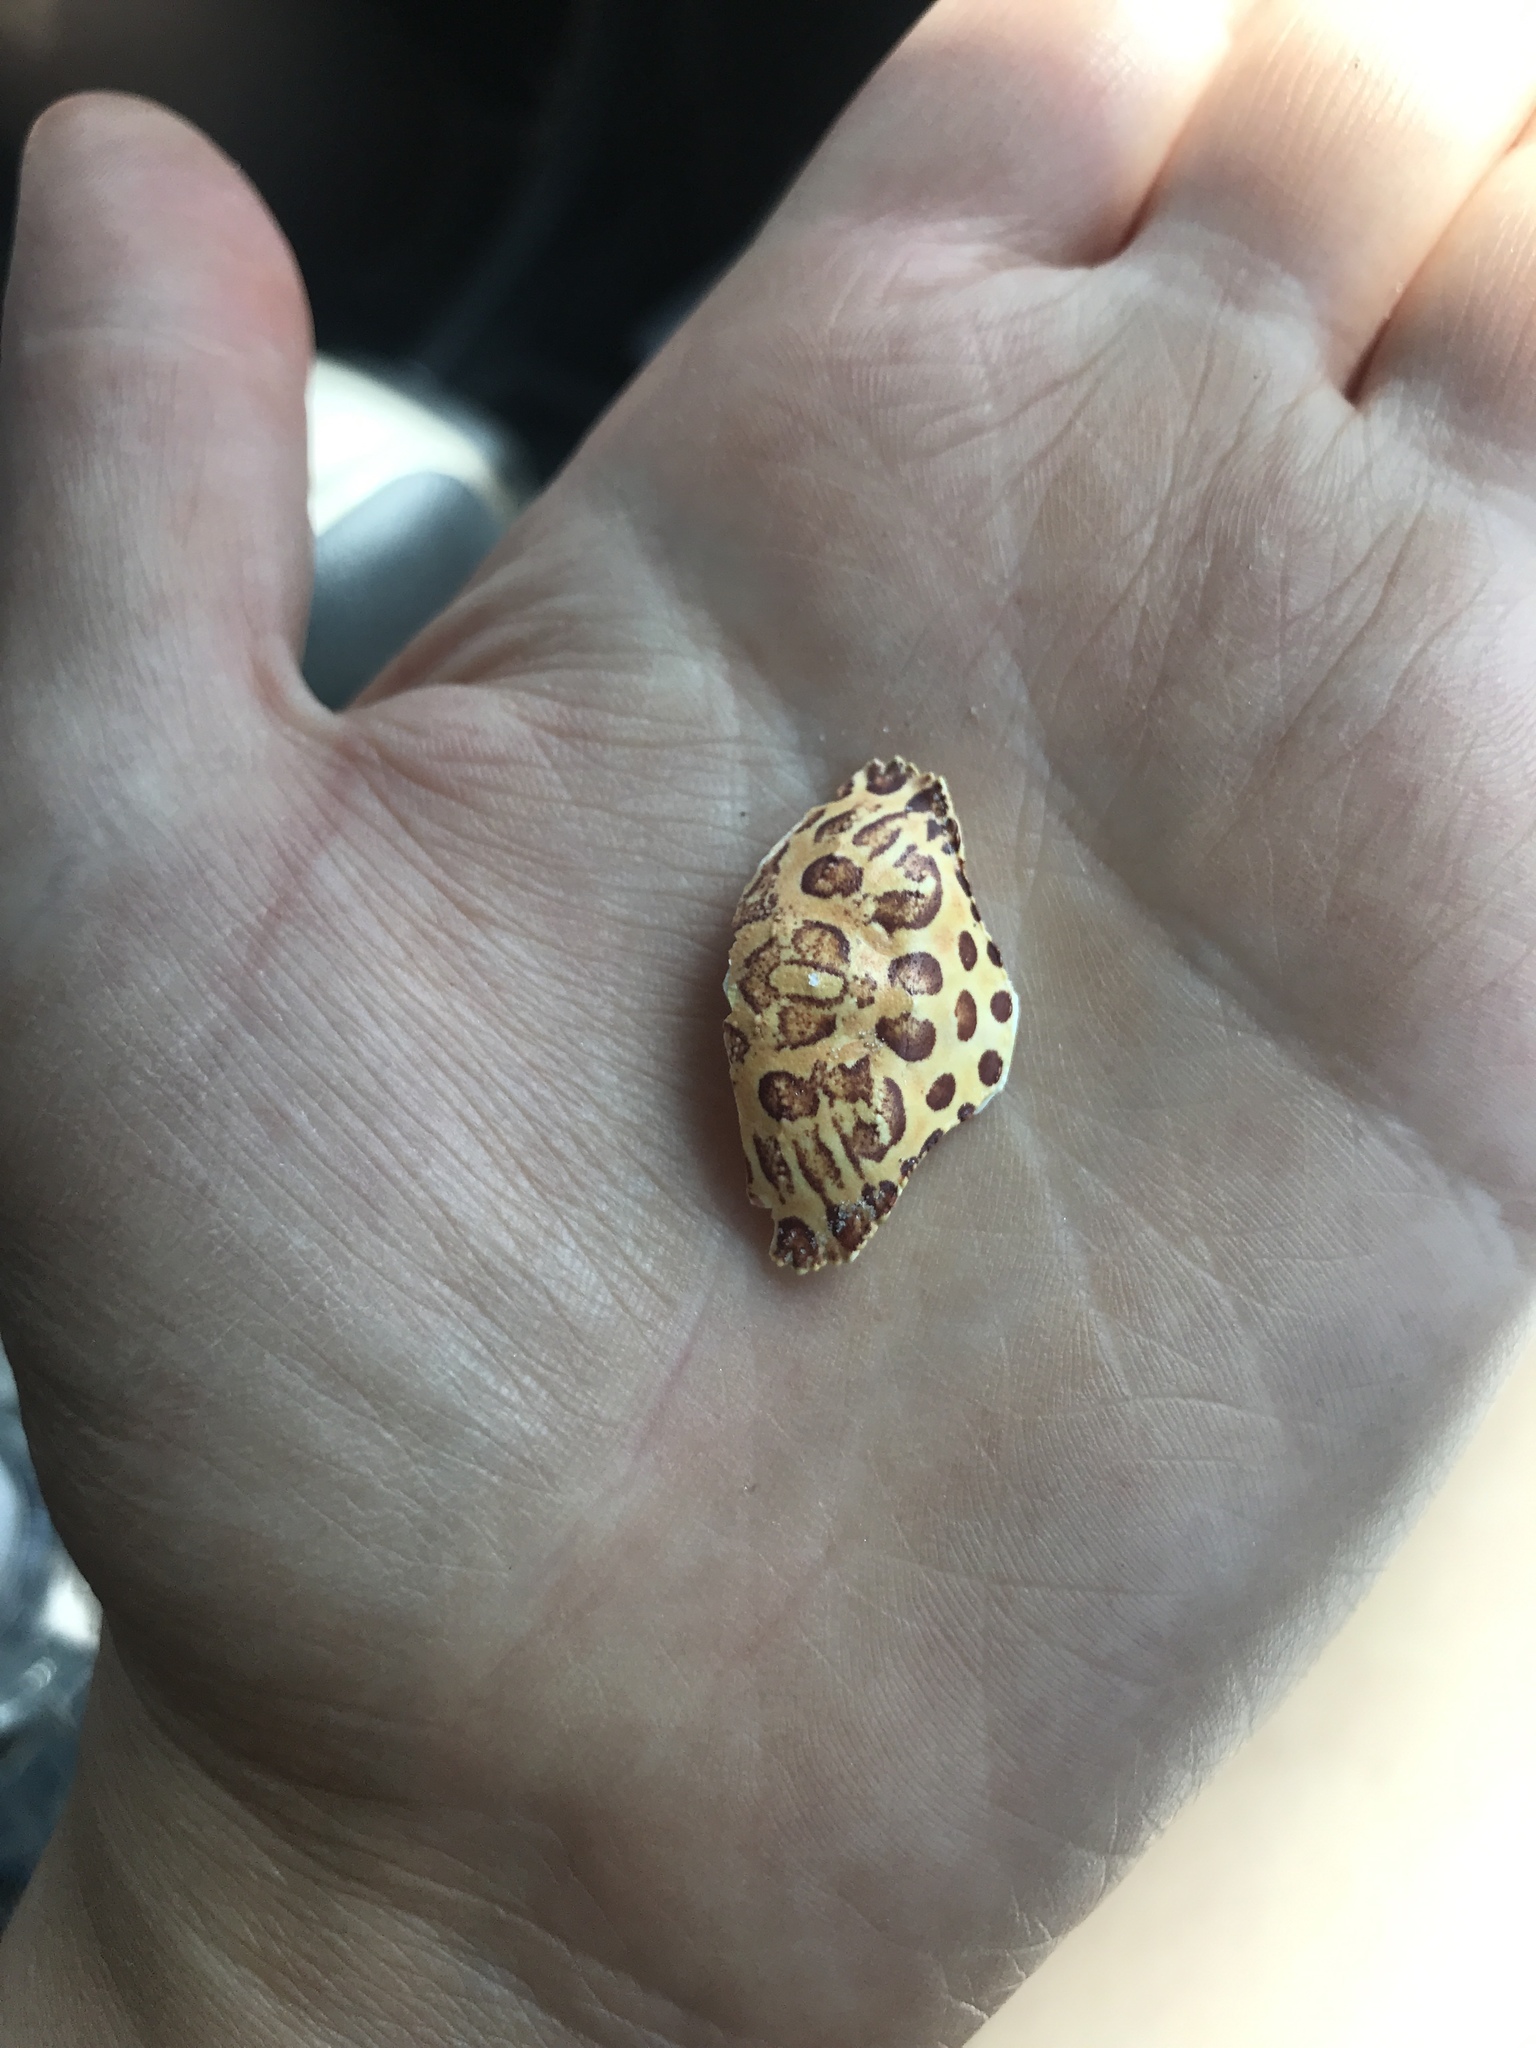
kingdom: Animalia
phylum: Arthropoda
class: Malacostraca
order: Decapoda
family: Aethridae
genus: Hepatus
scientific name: Hepatus epheliticus
